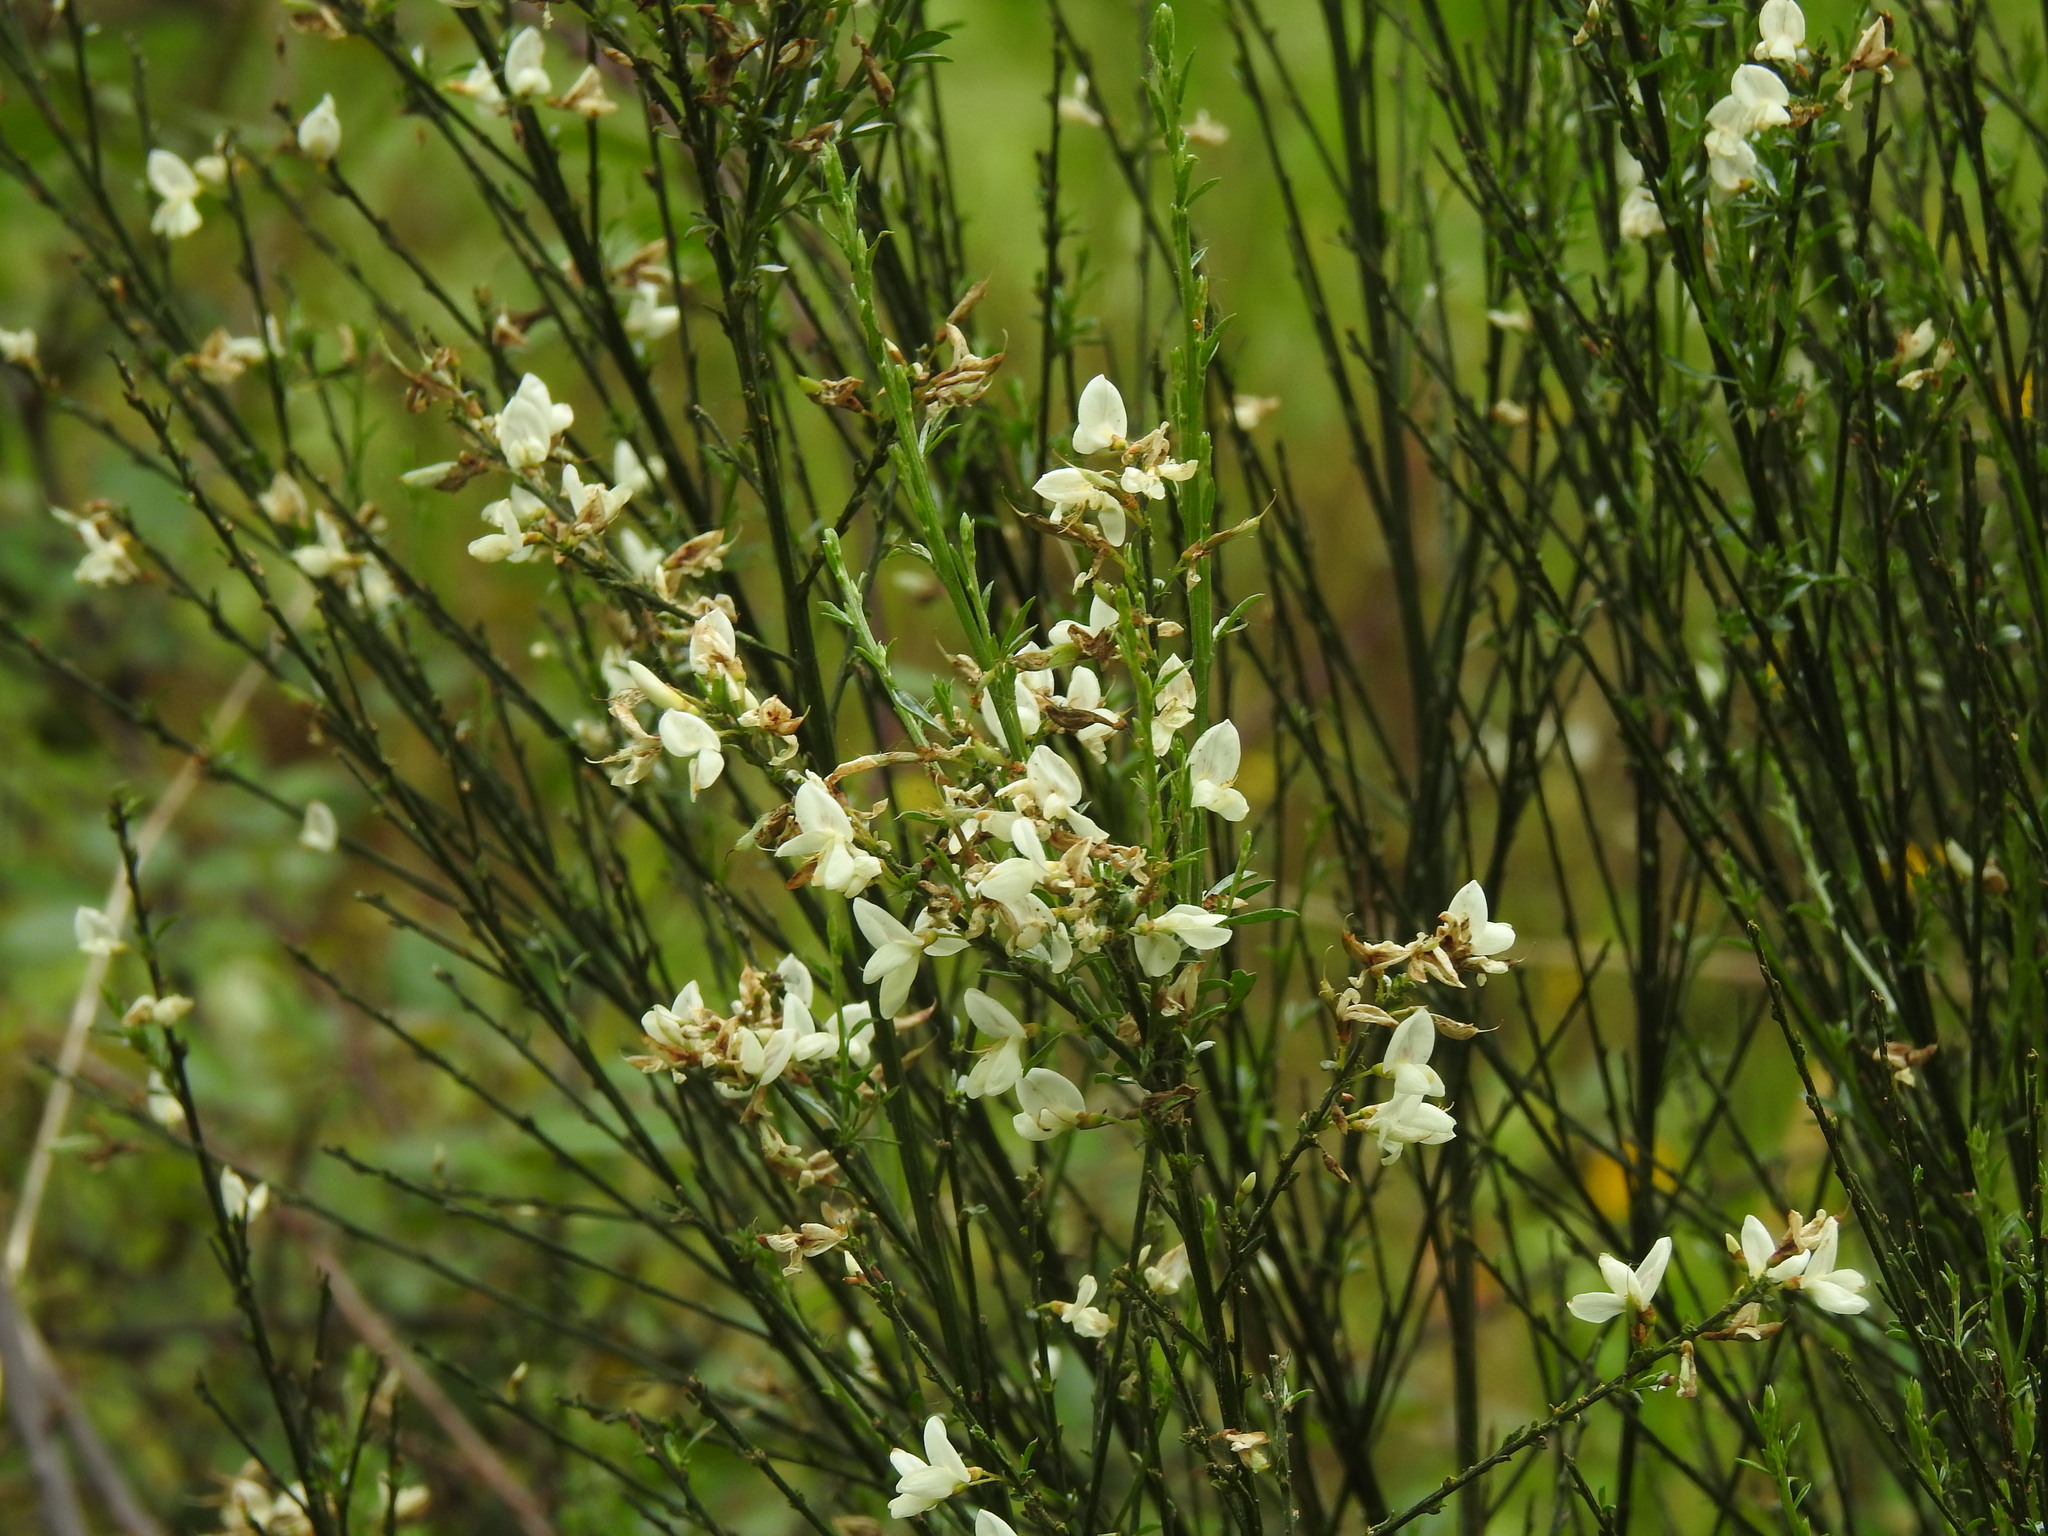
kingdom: Plantae
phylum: Tracheophyta
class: Magnoliopsida
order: Fabales
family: Fabaceae
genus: Cytisus
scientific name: Cytisus multiflorus
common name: White broom
